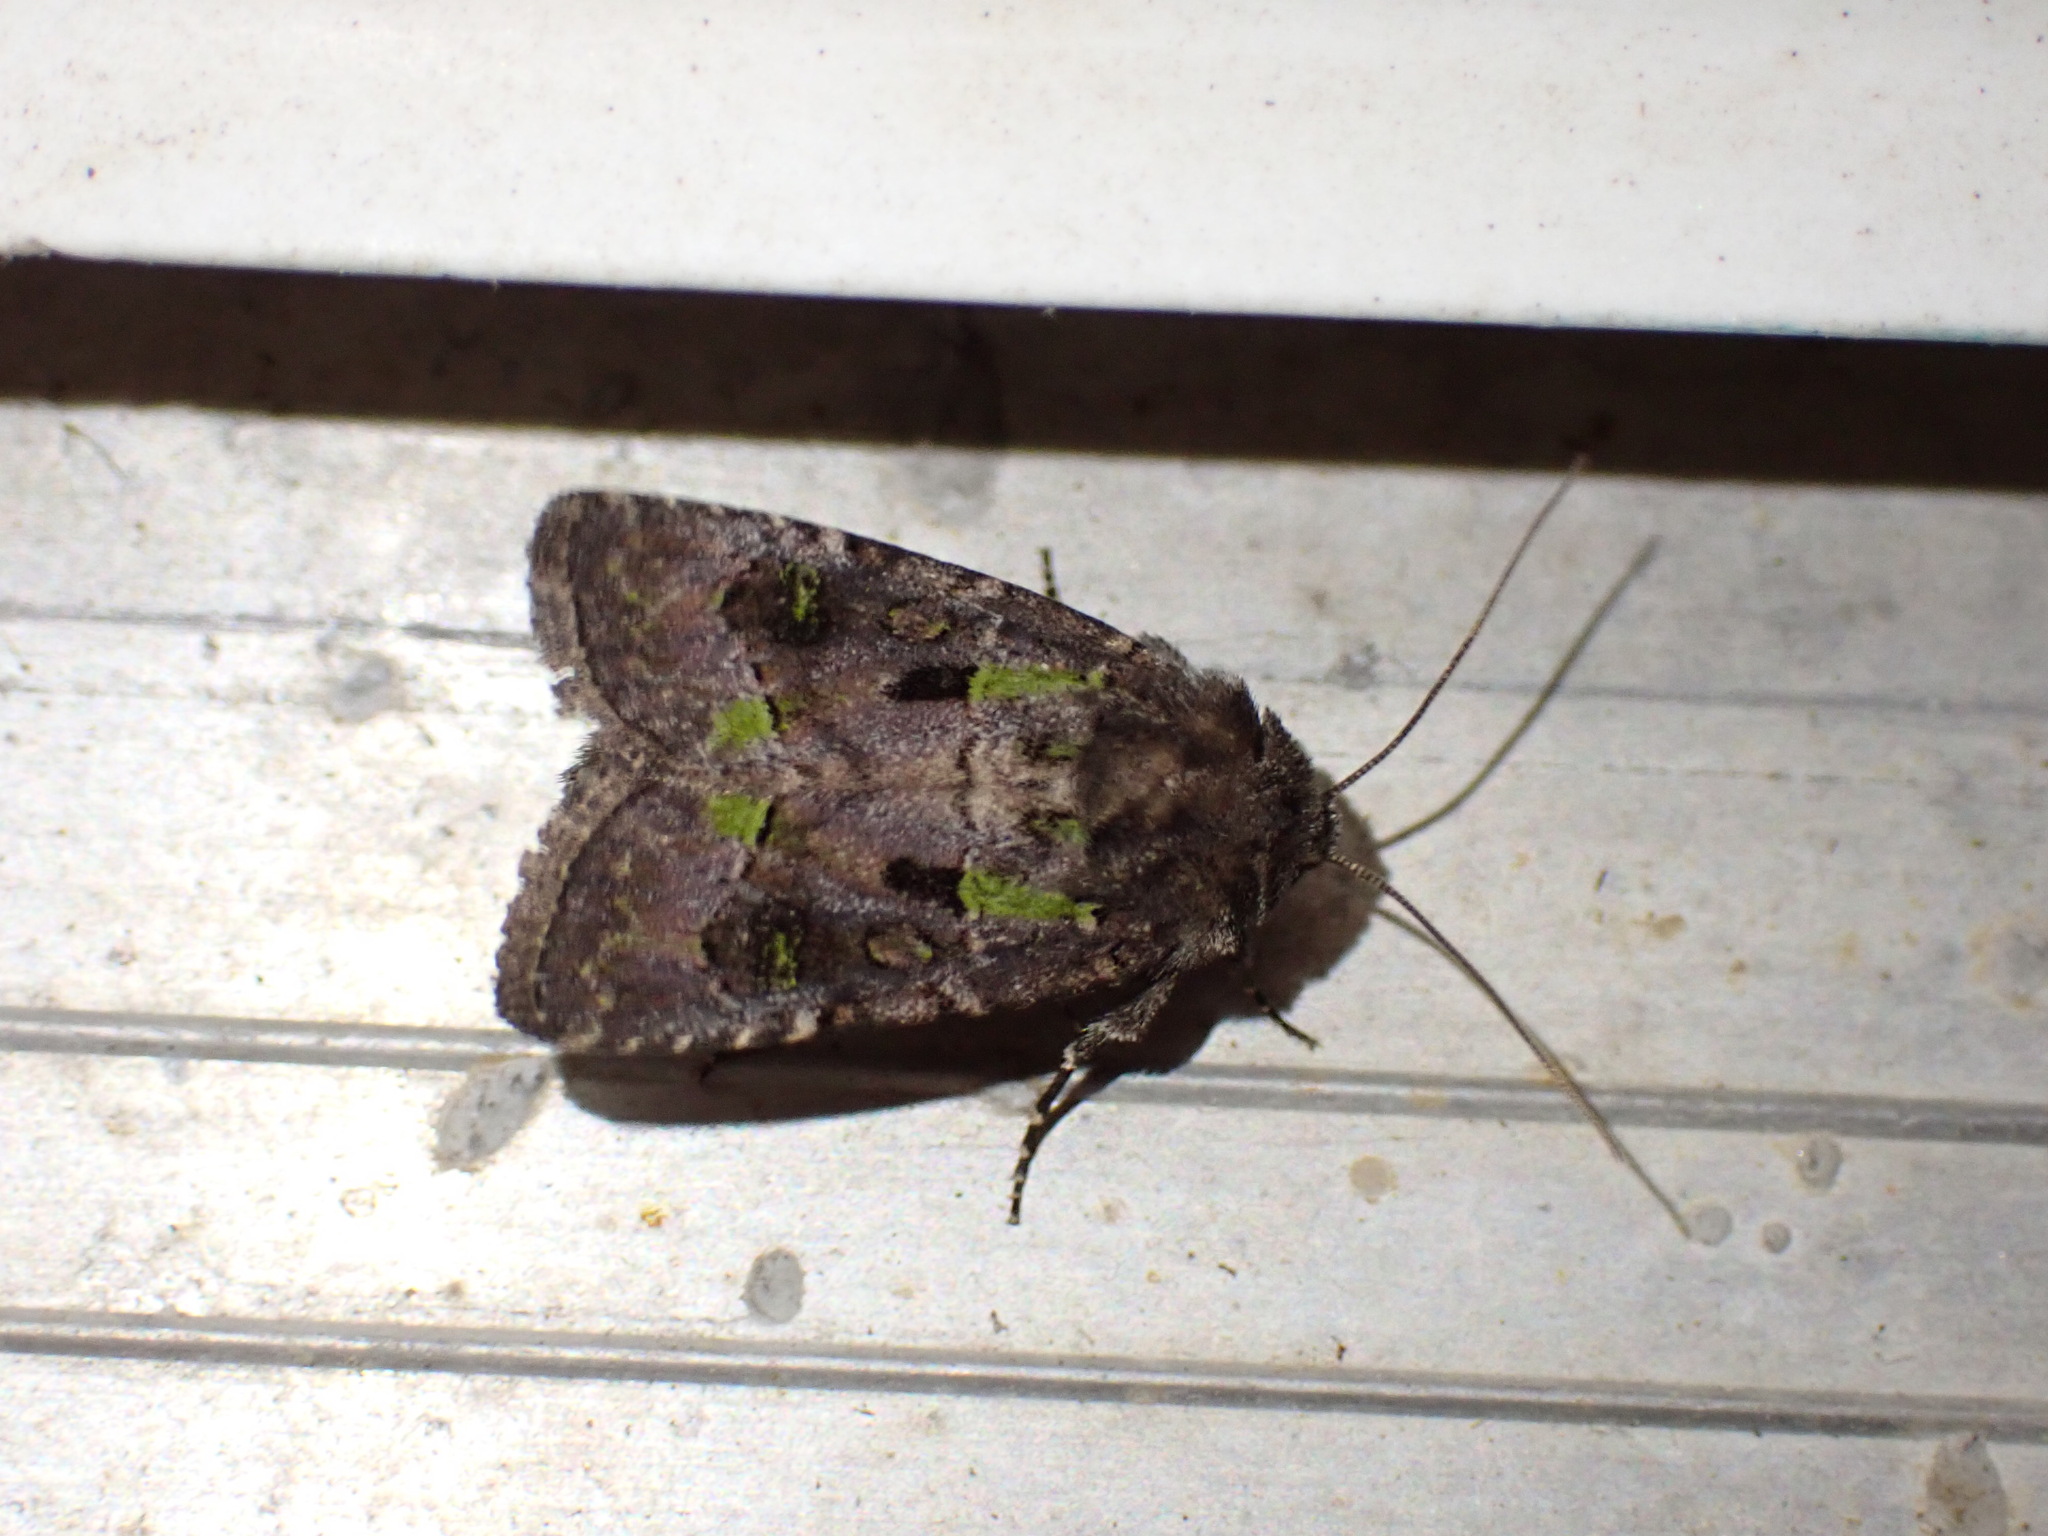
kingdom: Animalia
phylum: Arthropoda
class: Insecta
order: Lepidoptera
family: Noctuidae
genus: Lacinipolia
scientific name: Lacinipolia renigera
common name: Kidney-spotted minor
